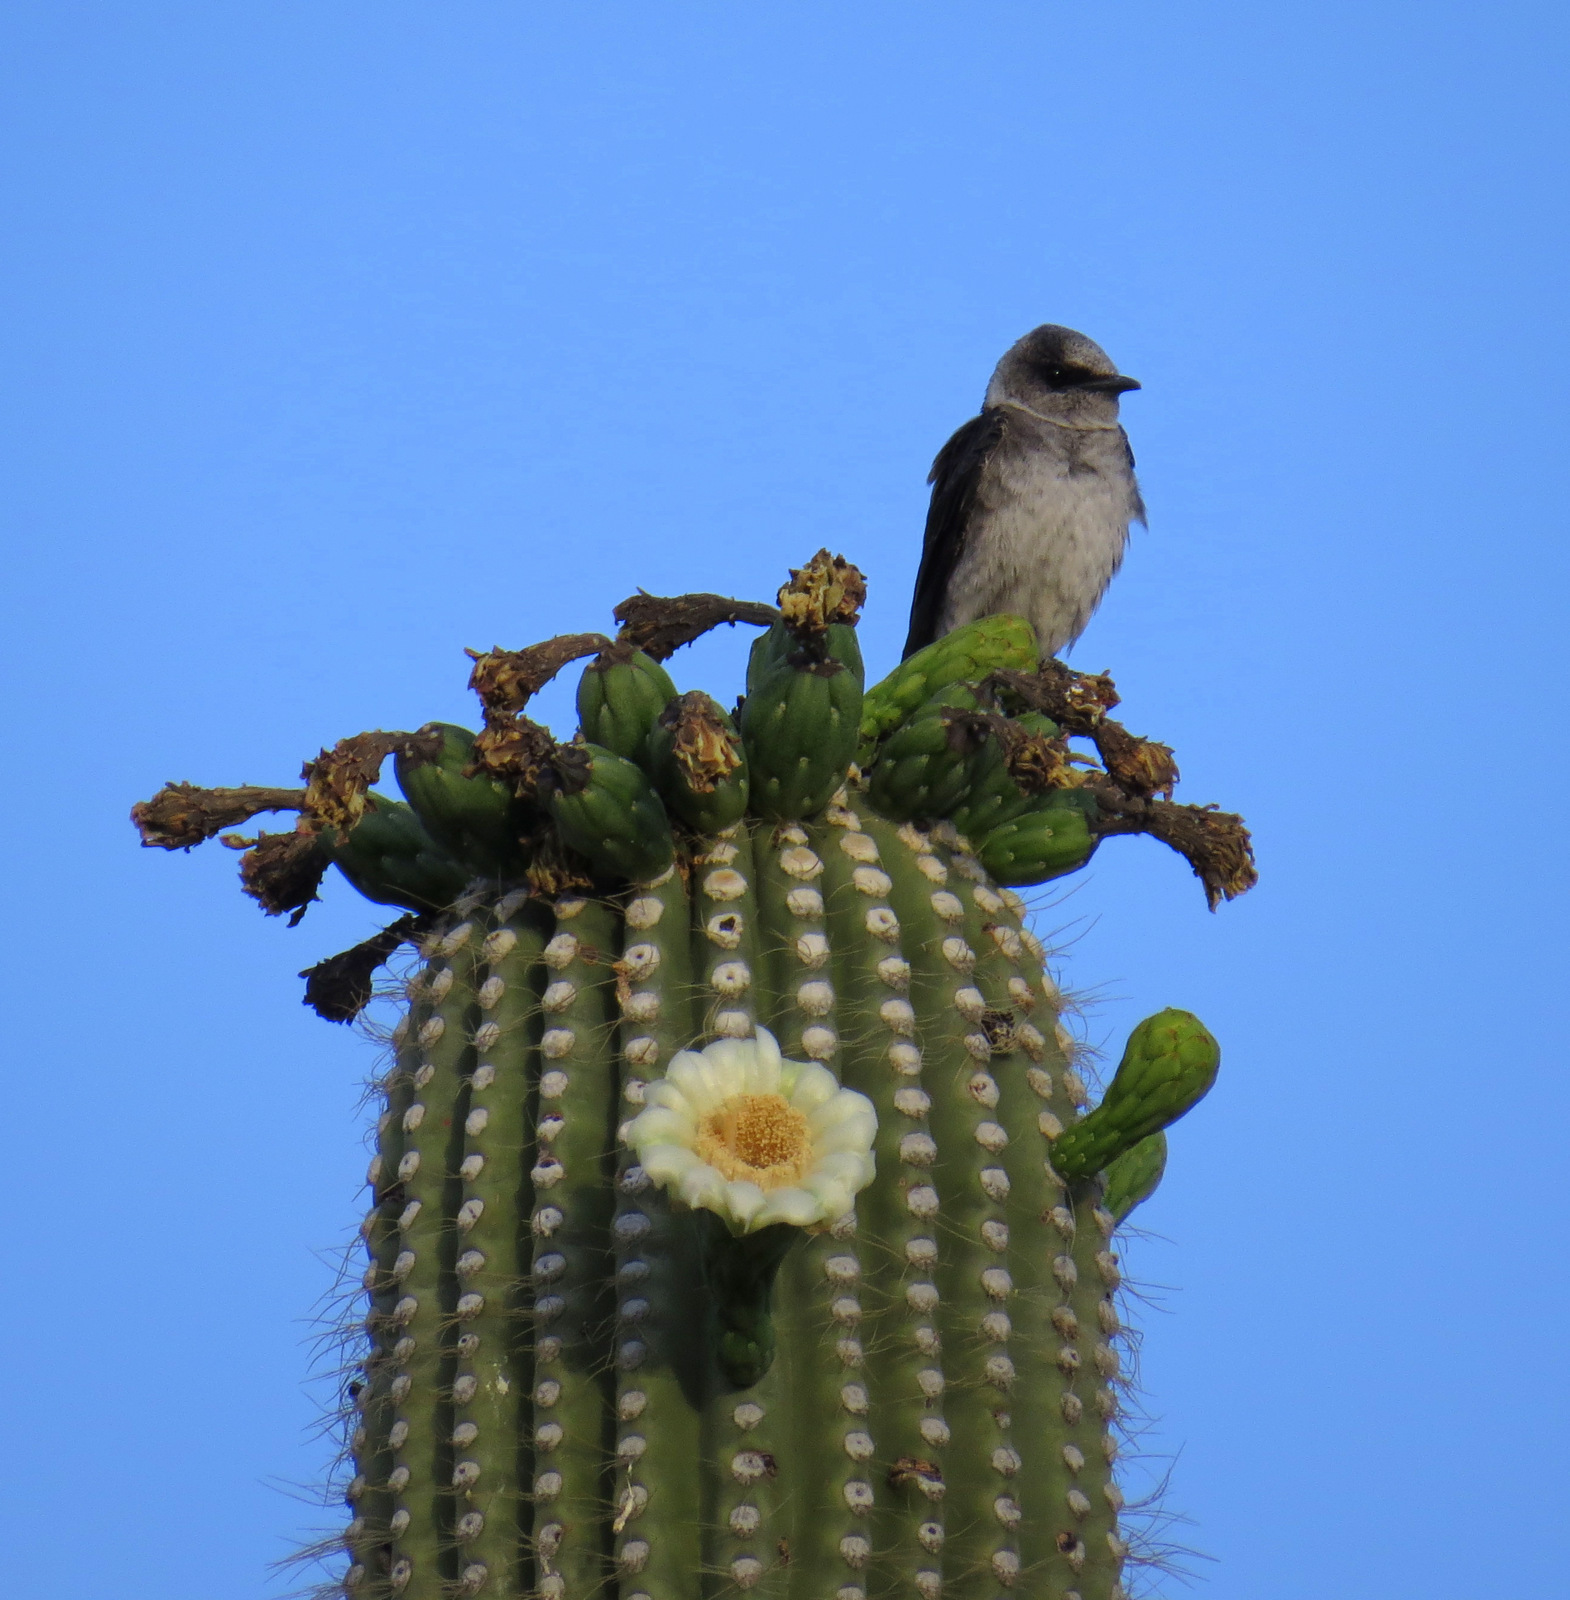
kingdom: Animalia
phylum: Chordata
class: Aves
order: Passeriformes
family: Hirundinidae
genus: Progne
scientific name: Progne subis
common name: Purple martin
